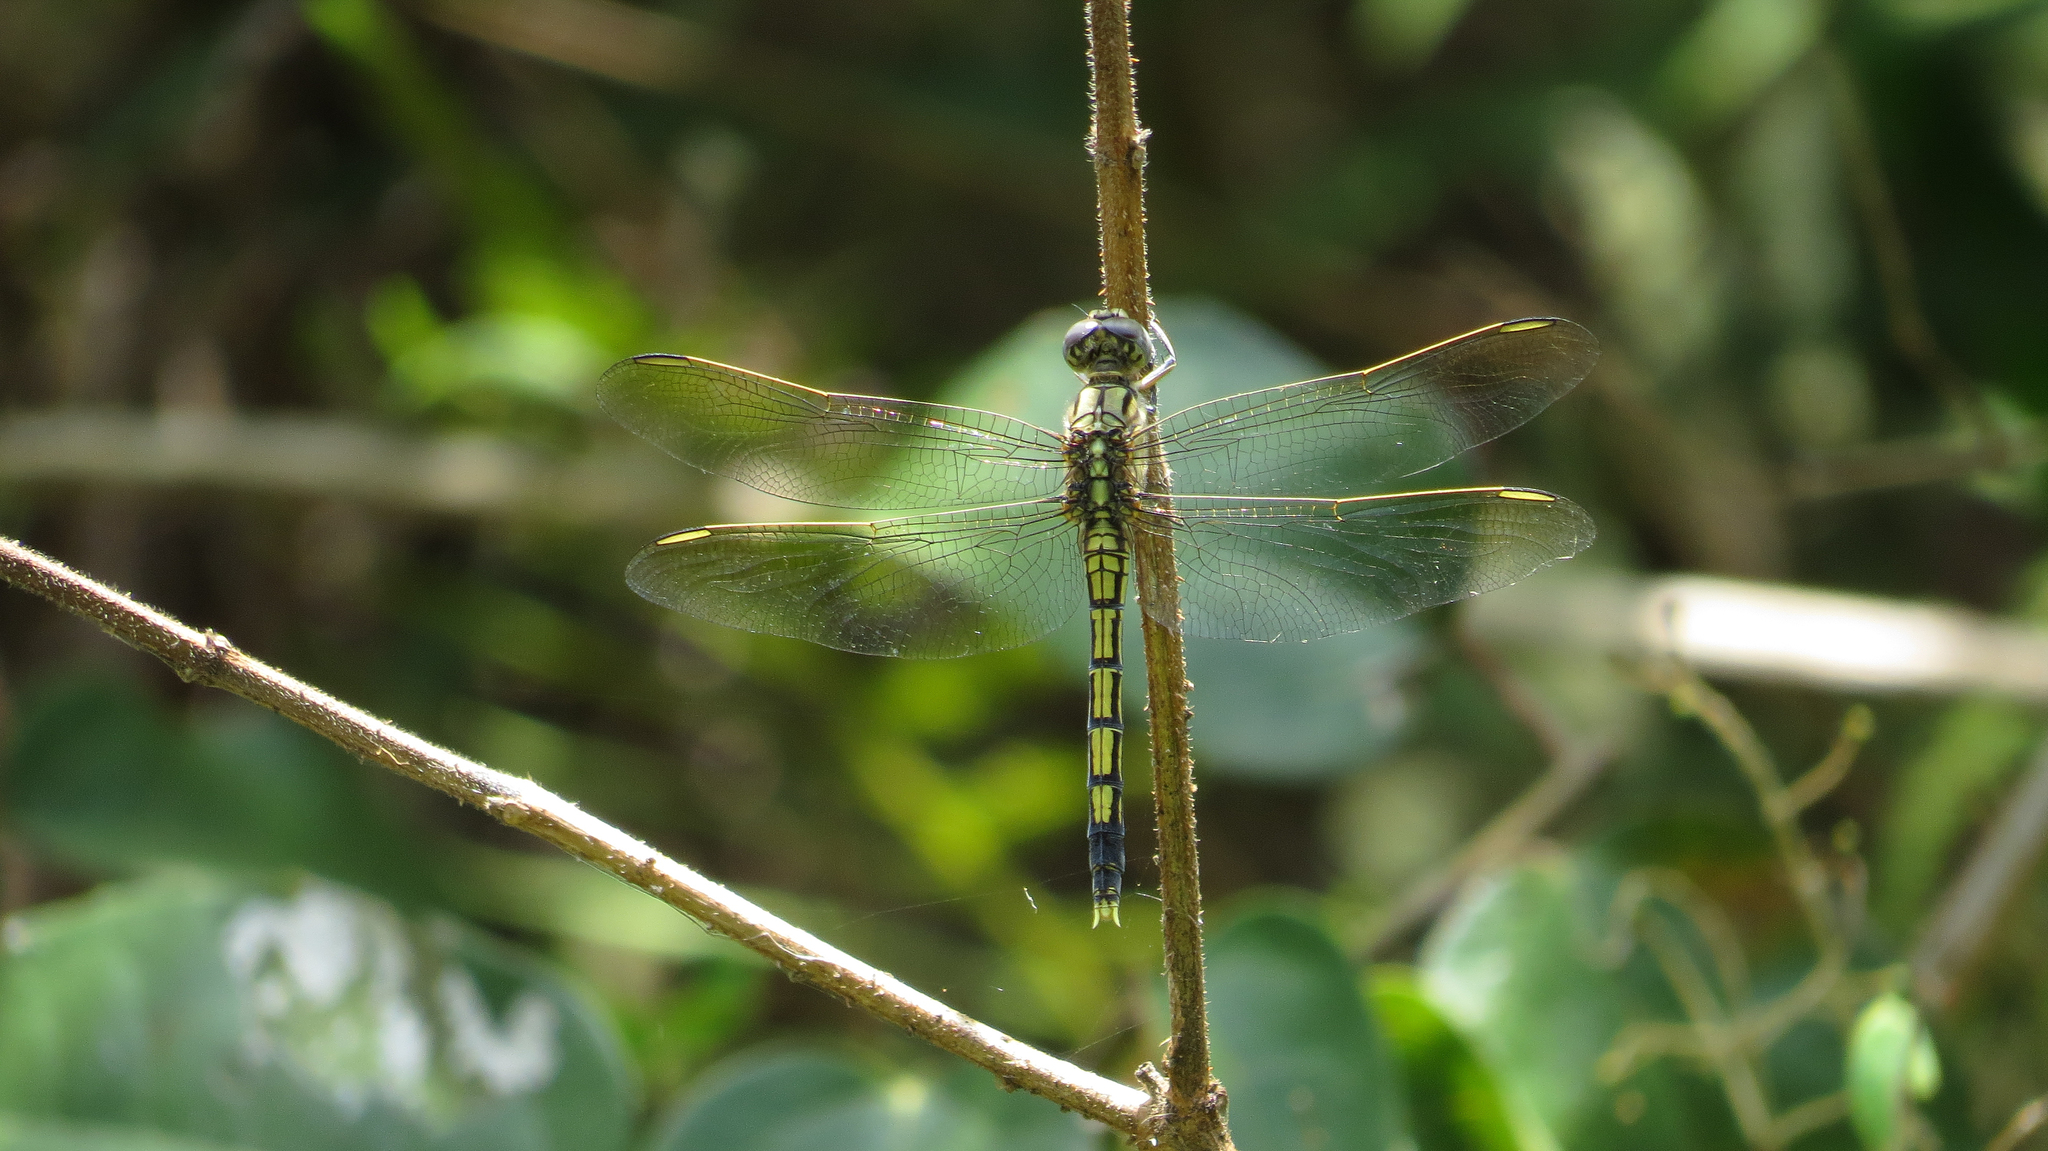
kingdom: Animalia
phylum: Arthropoda
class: Insecta
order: Odonata
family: Libellulidae
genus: Orthetrum
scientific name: Orthetrum caledonicum
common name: Blue skimmer
